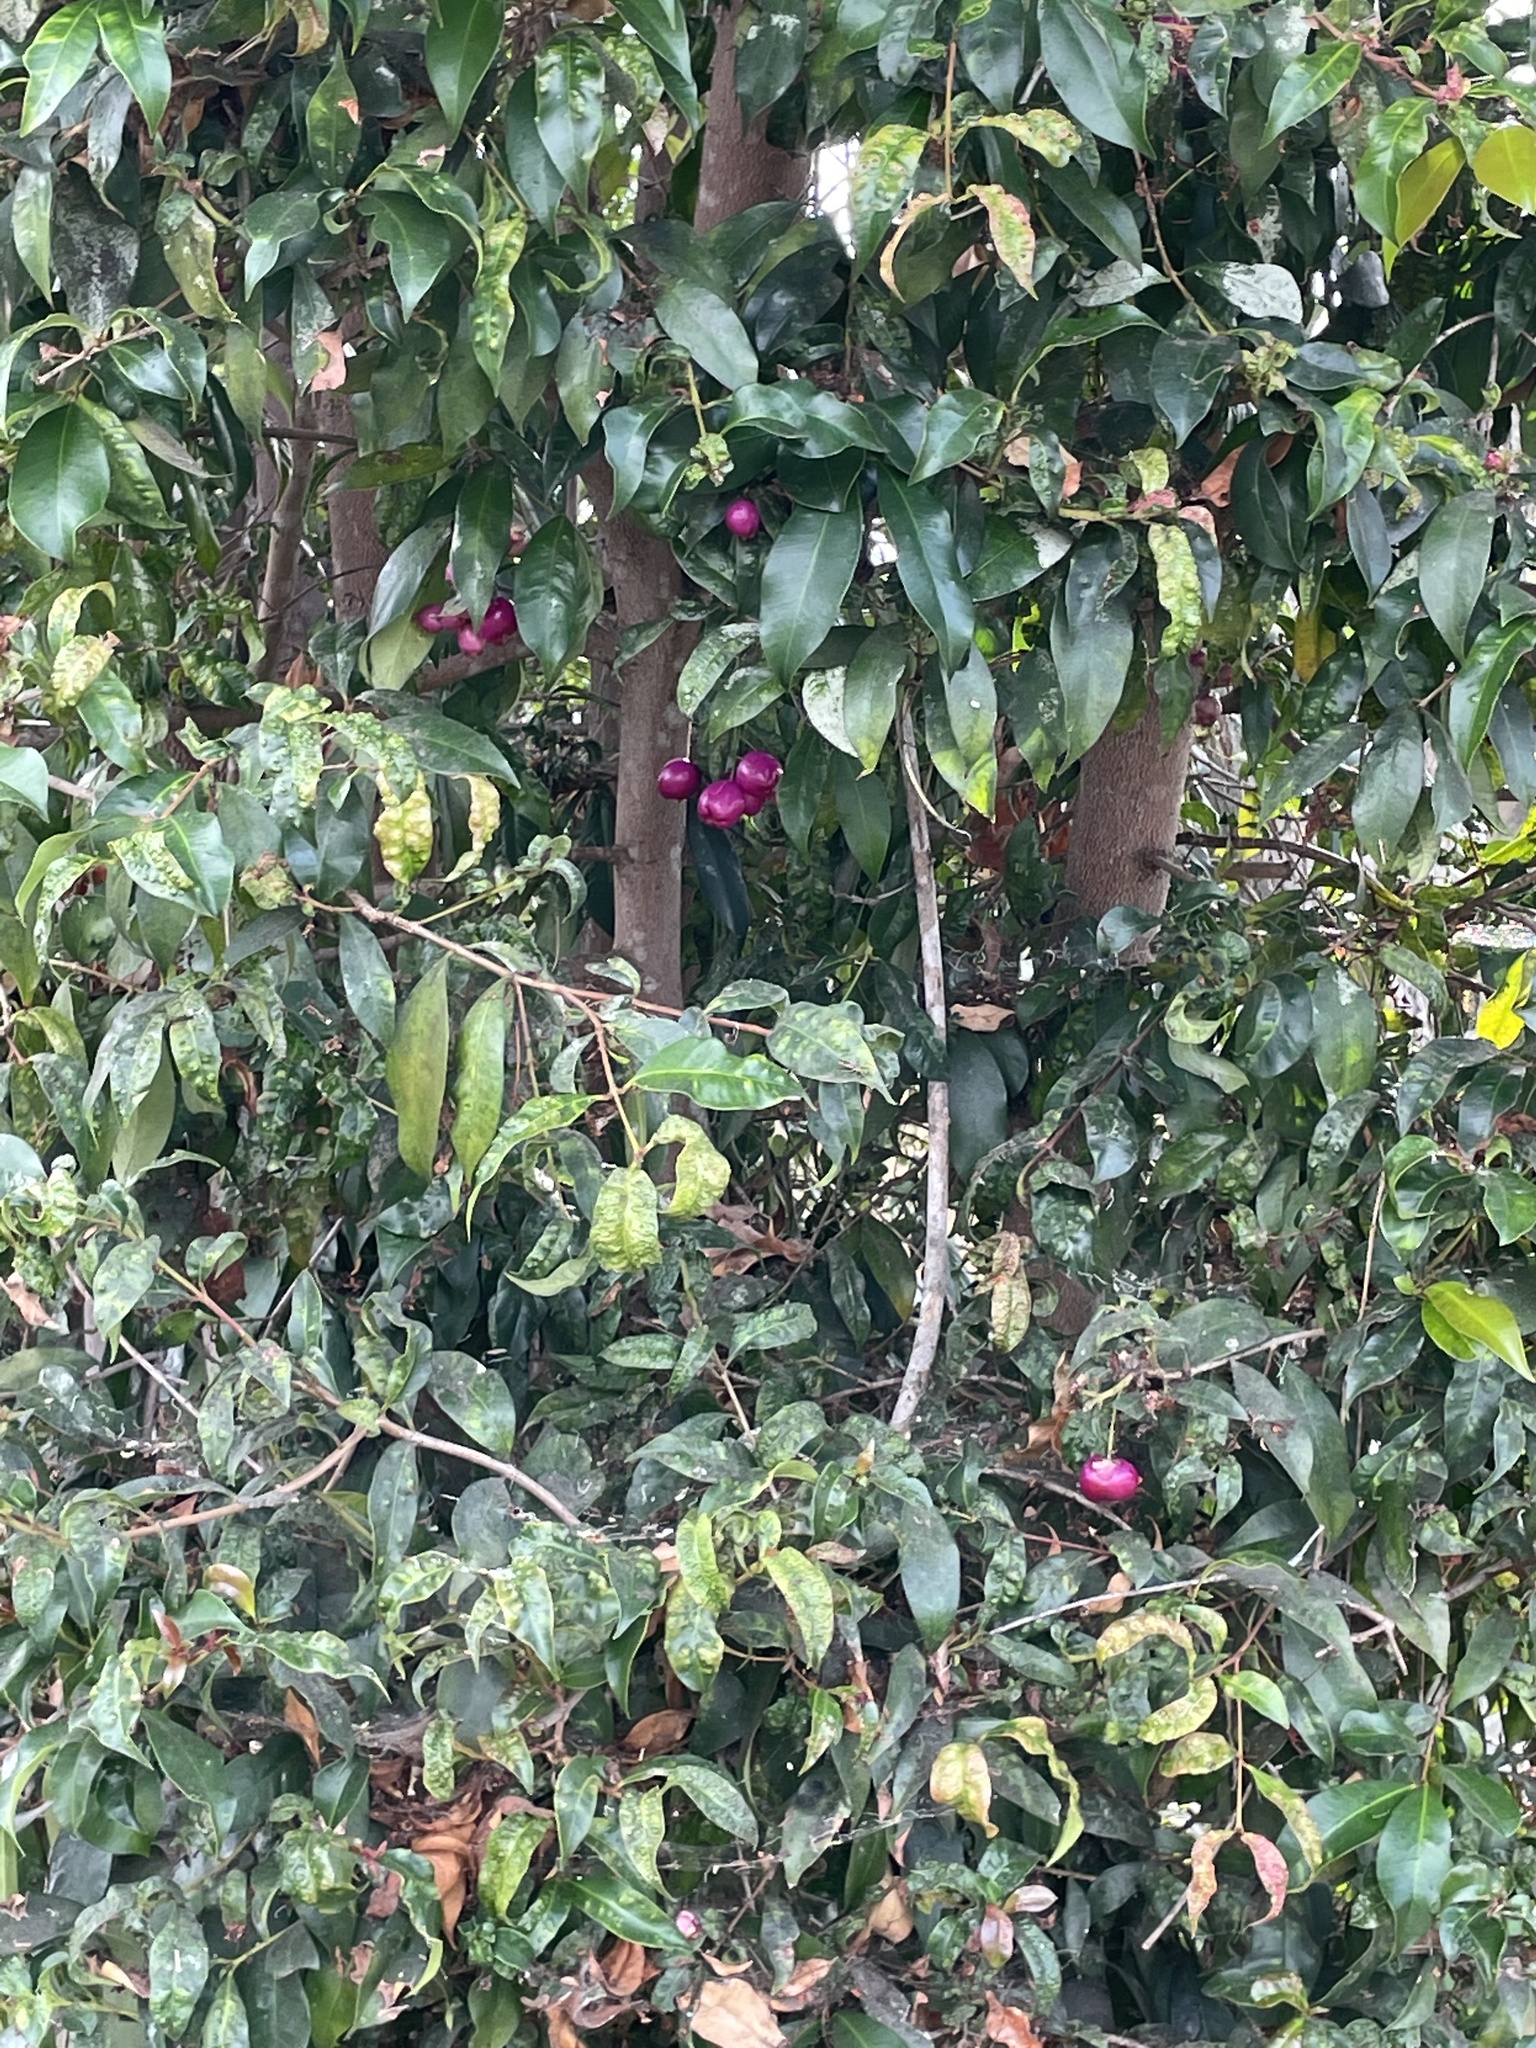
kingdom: Animalia
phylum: Arthropoda
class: Insecta
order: Hemiptera
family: Triozidae
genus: Trioza
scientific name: Trioza adventicia
